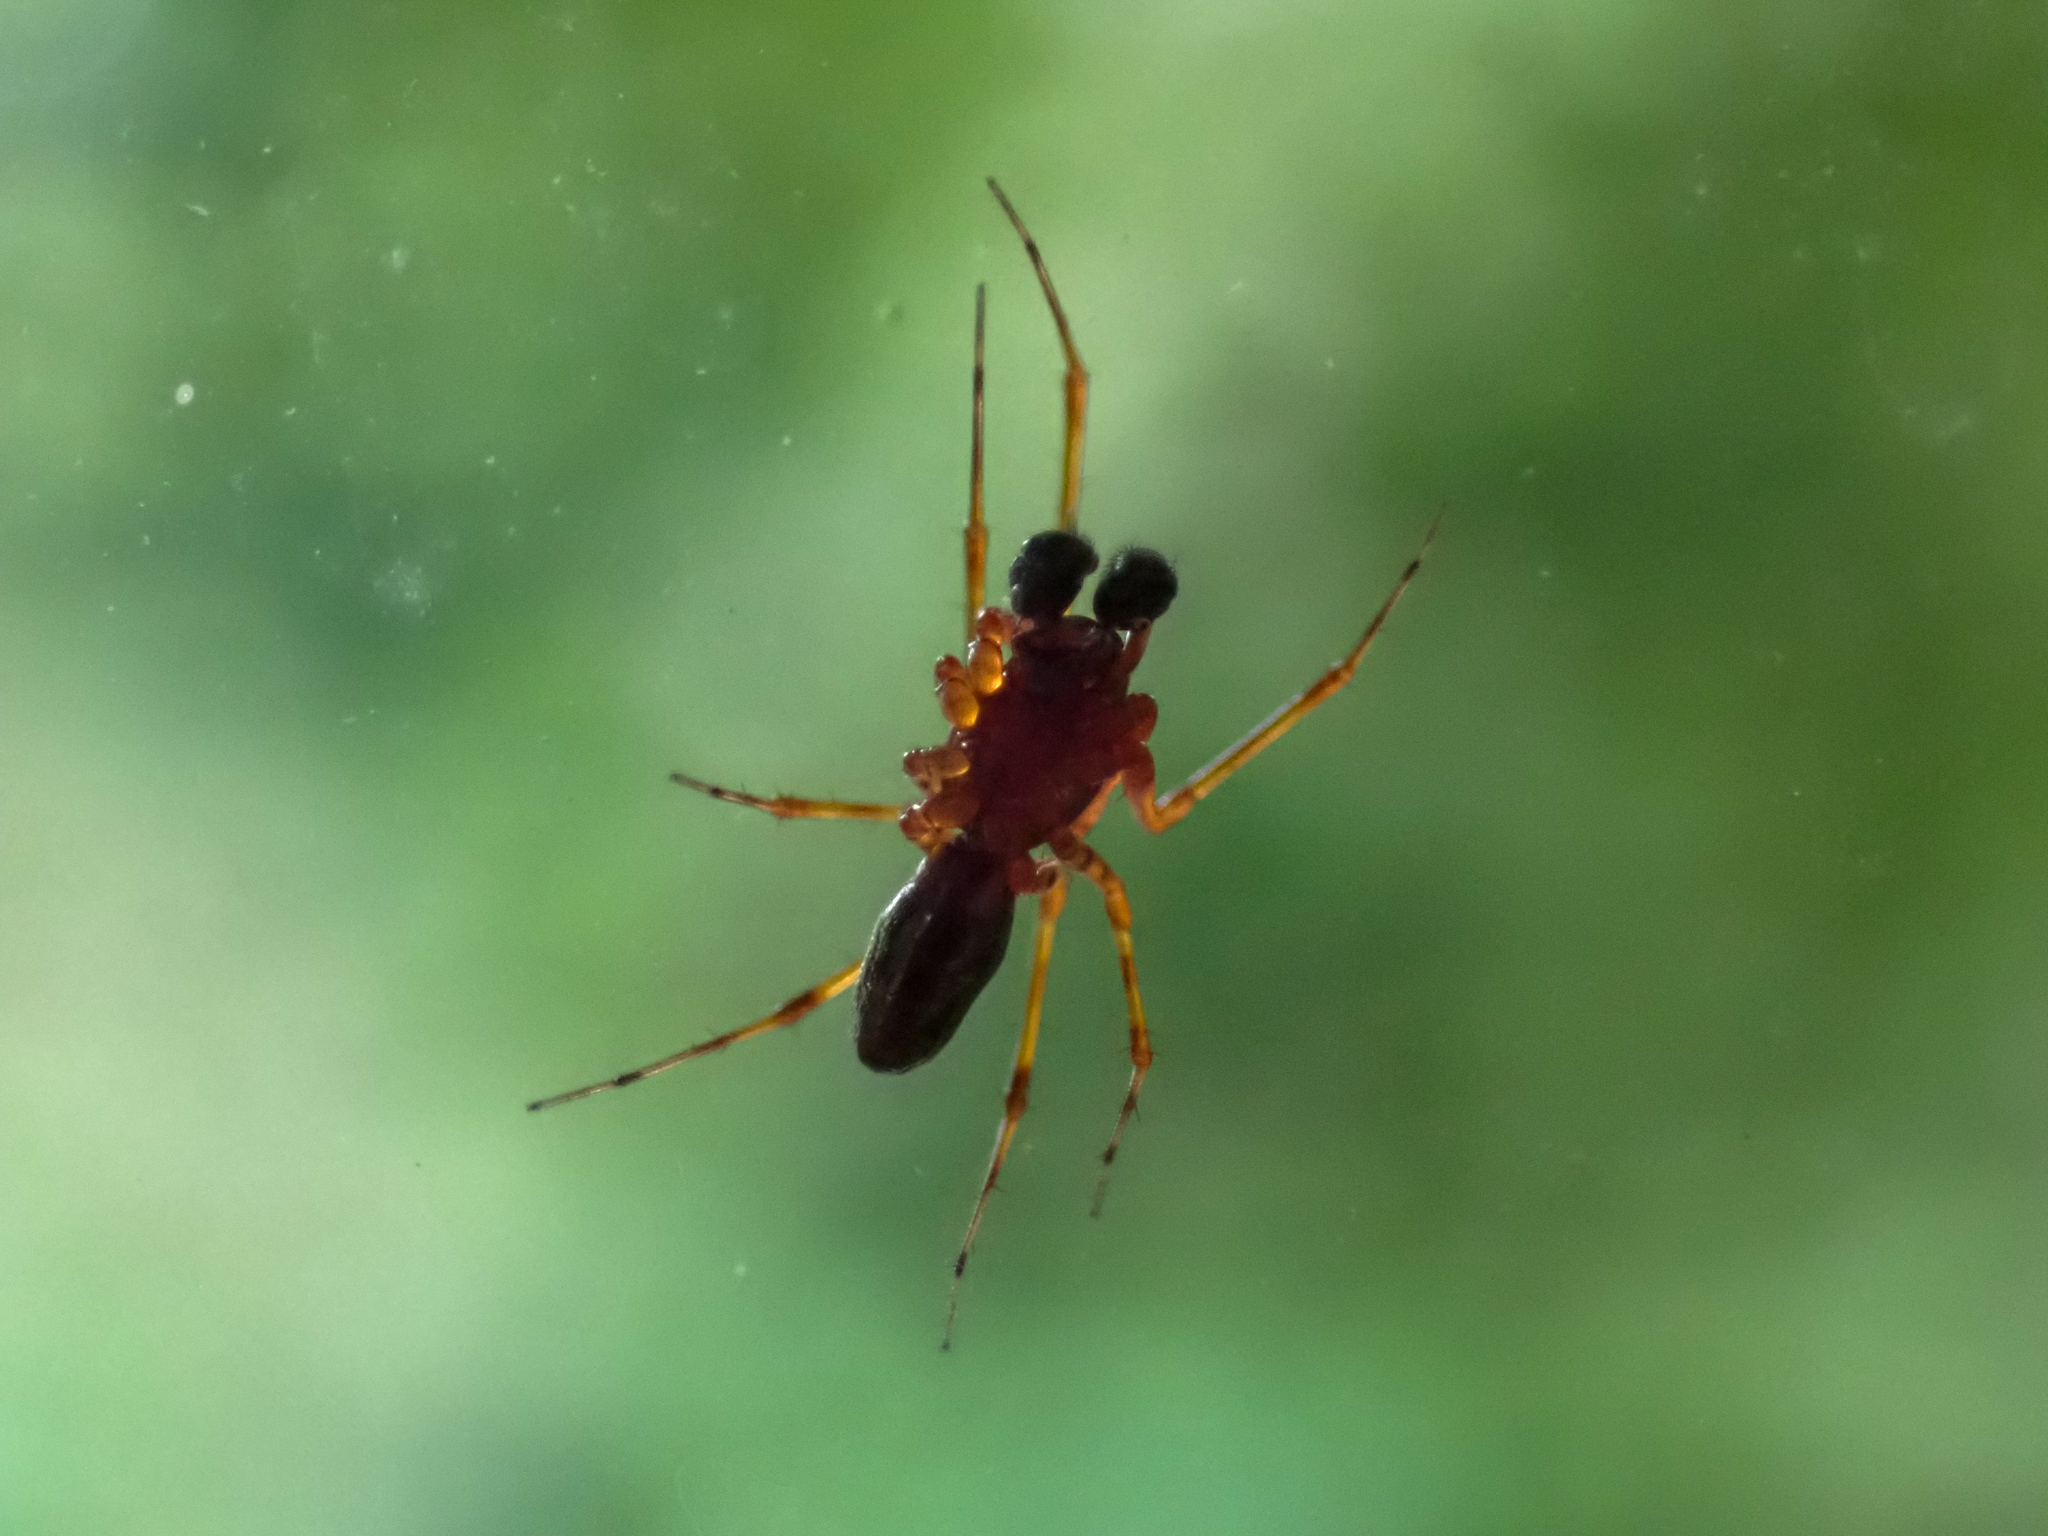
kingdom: Animalia
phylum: Arthropoda
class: Arachnida
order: Araneae
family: Linyphiidae
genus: Neriene
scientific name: Neriene digna
